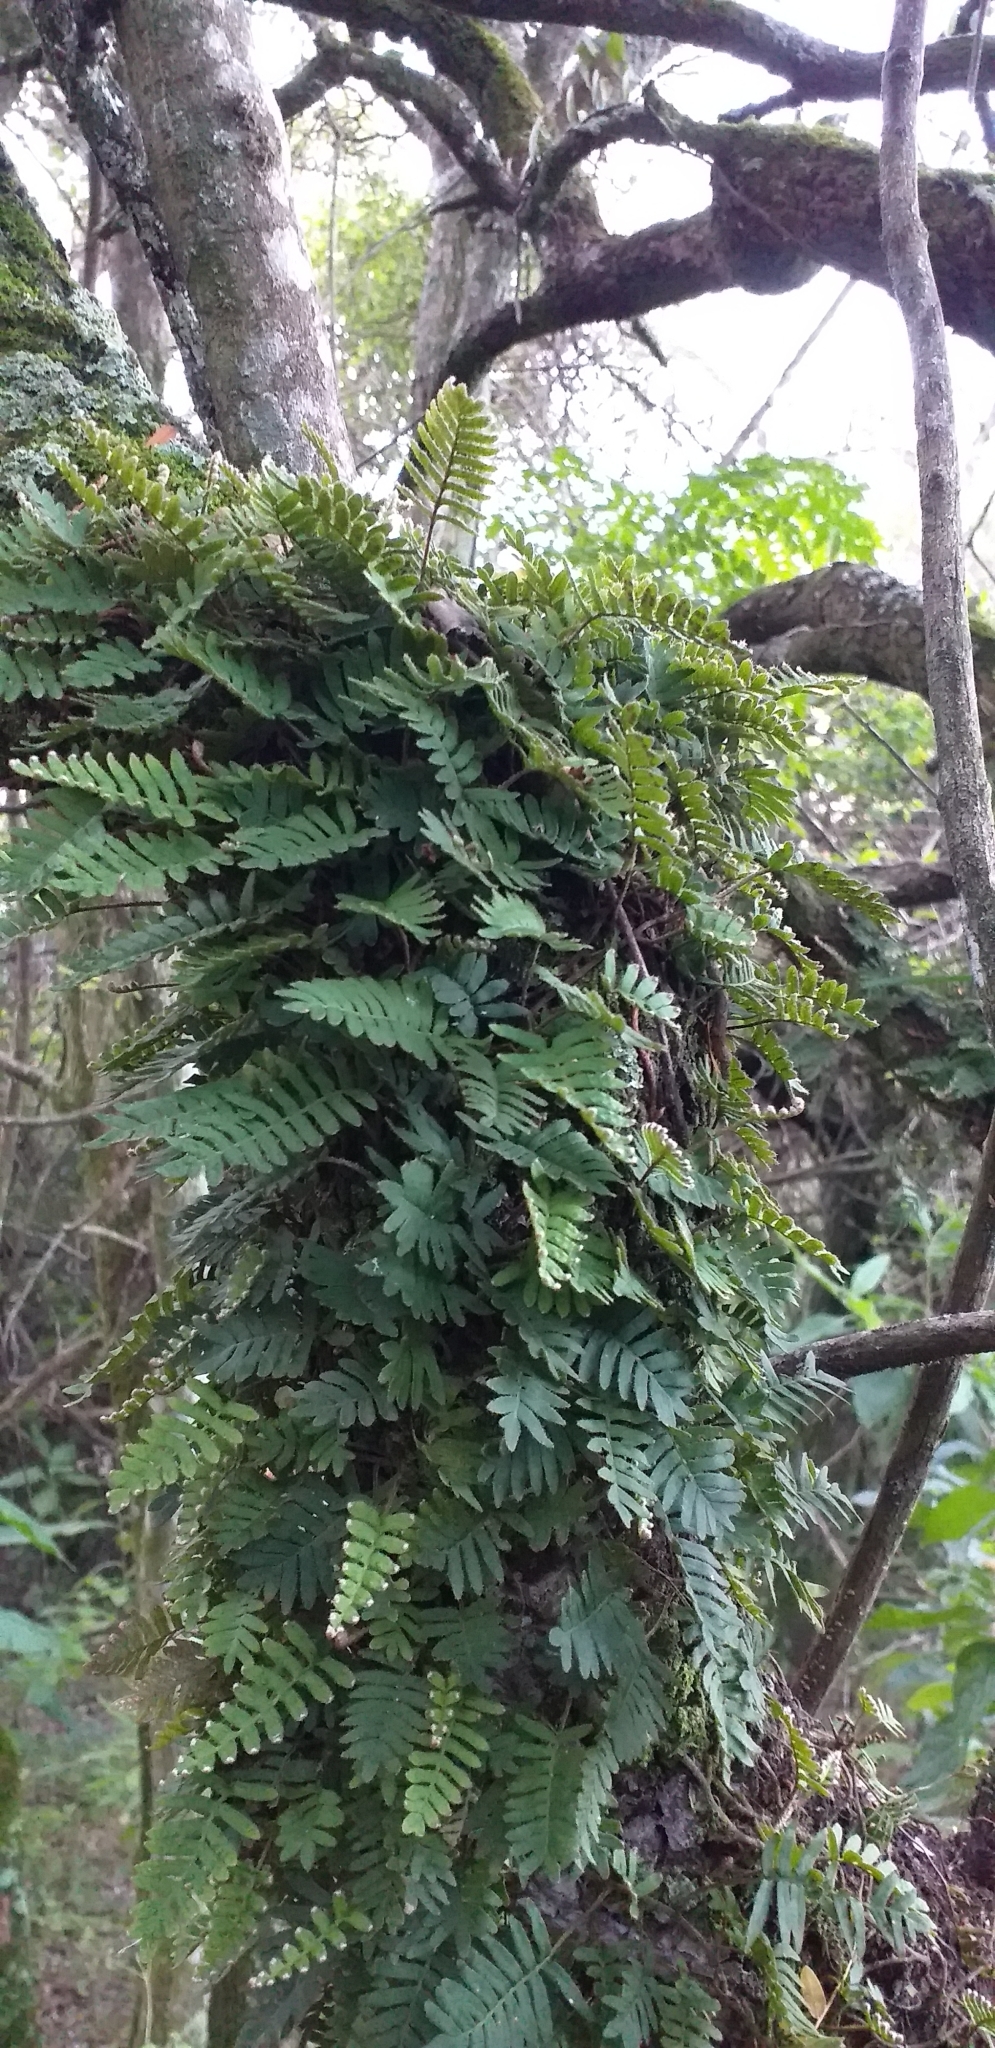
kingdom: Plantae
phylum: Tracheophyta
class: Polypodiopsida
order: Polypodiales
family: Polypodiaceae
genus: Pleopeltis
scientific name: Pleopeltis minima
